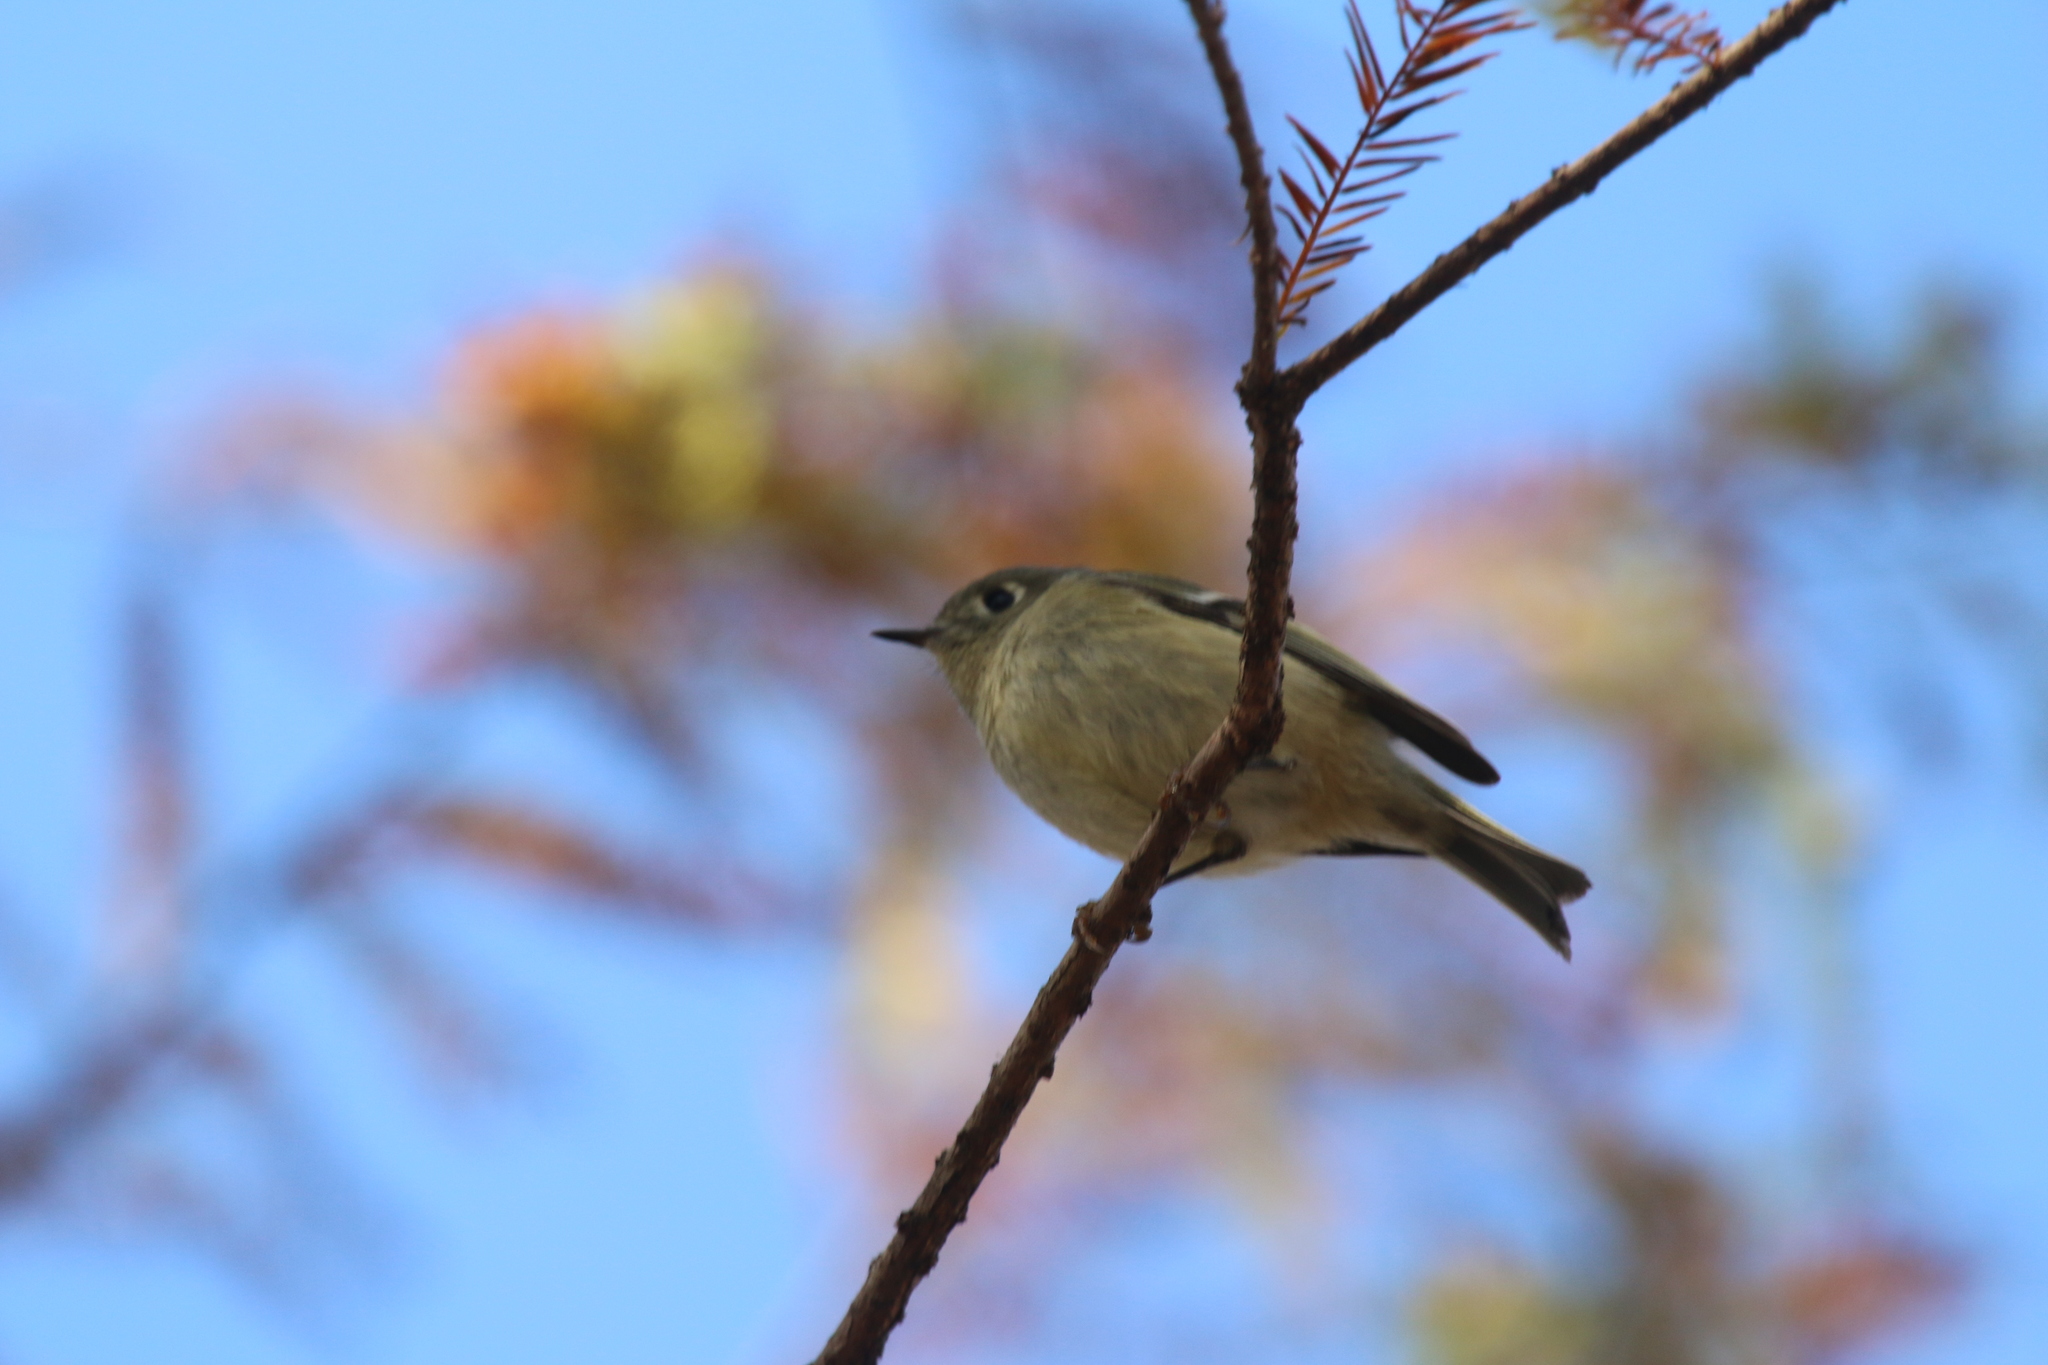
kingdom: Animalia
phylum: Chordata
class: Aves
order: Passeriformes
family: Regulidae
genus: Regulus
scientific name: Regulus calendula
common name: Ruby-crowned kinglet
